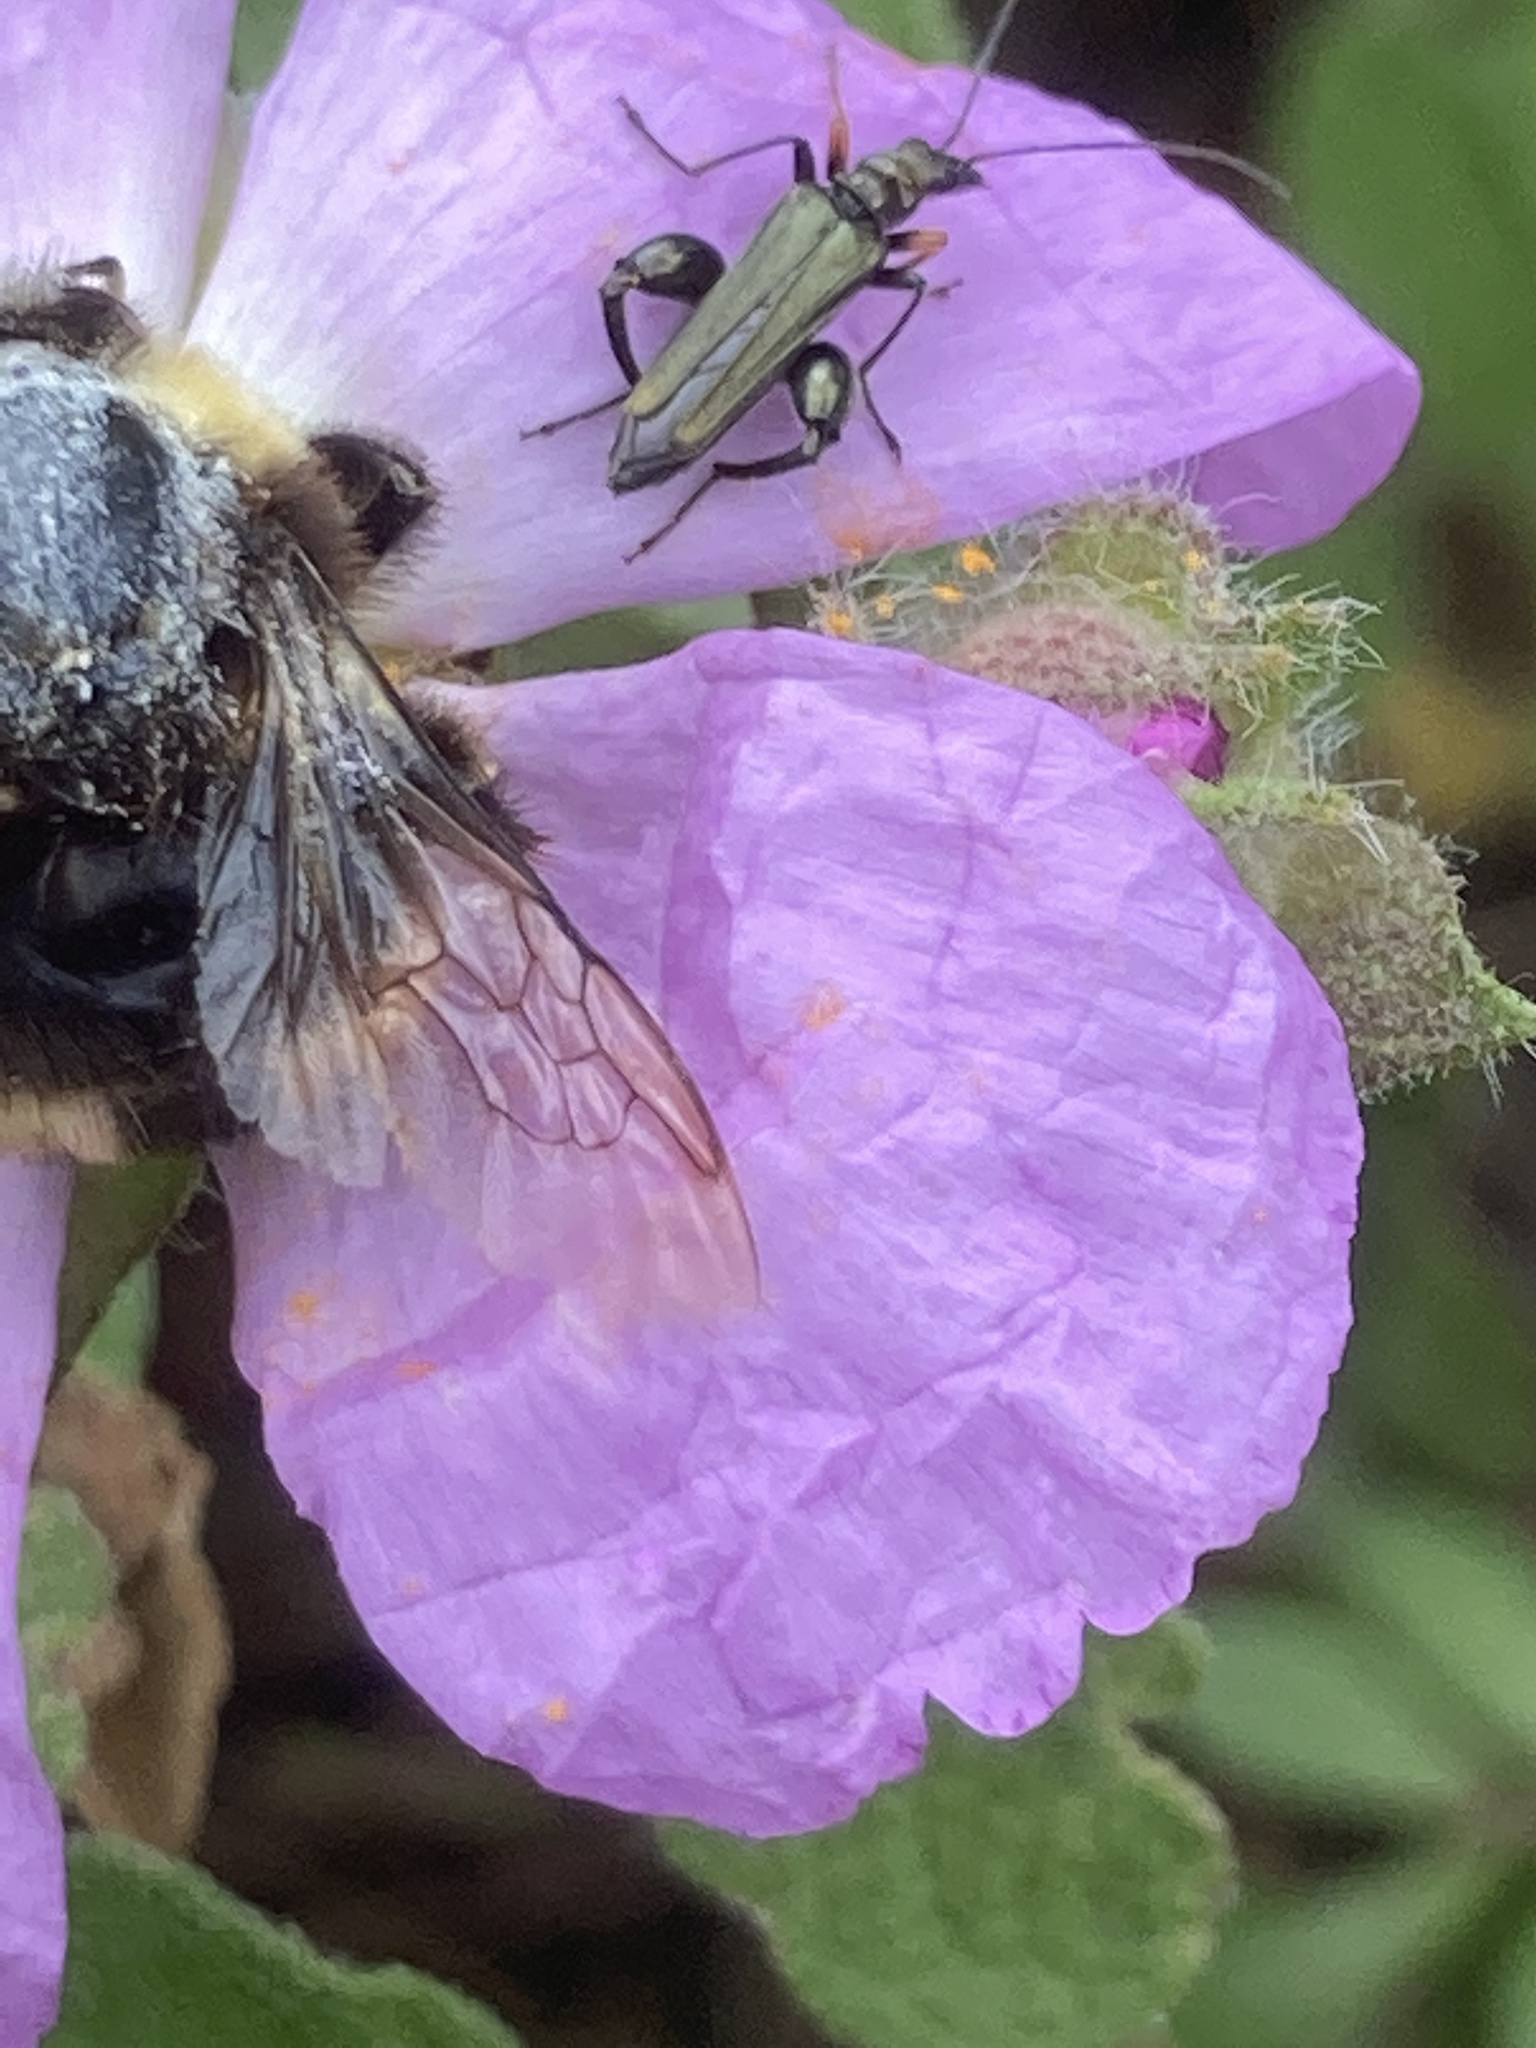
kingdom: Animalia
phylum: Arthropoda
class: Insecta
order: Hymenoptera
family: Apidae
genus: Bombus
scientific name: Bombus terrestris
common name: Buff-tailed bumblebee
